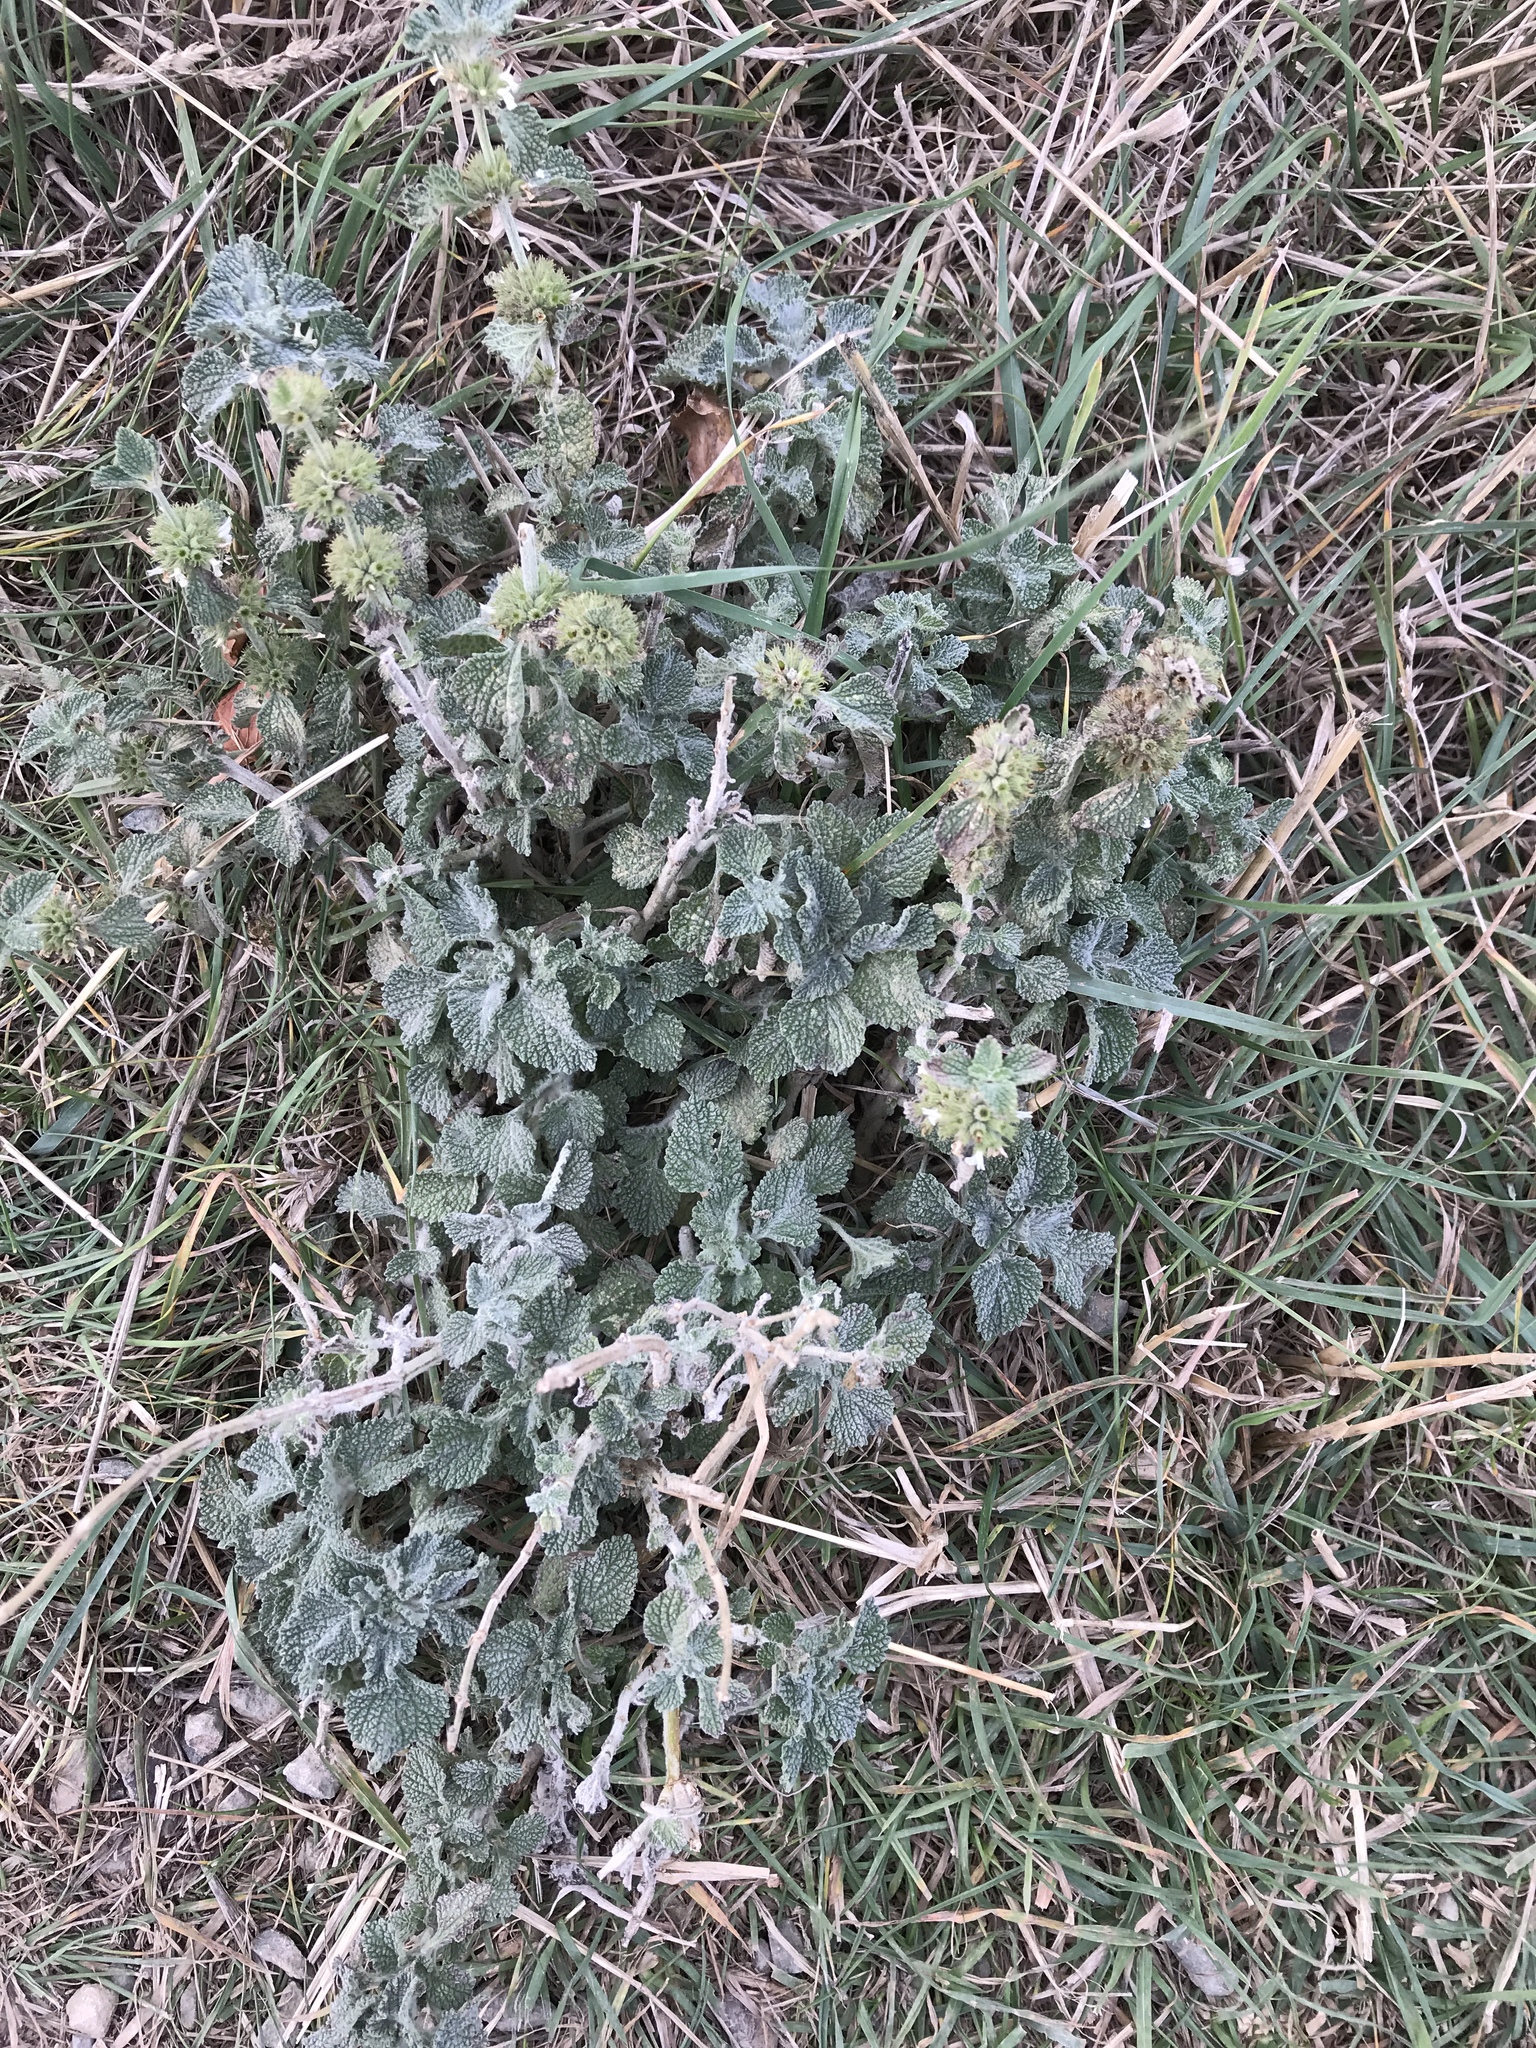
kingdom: Plantae
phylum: Tracheophyta
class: Magnoliopsida
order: Lamiales
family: Lamiaceae
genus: Marrubium
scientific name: Marrubium vulgare
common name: Horehound
